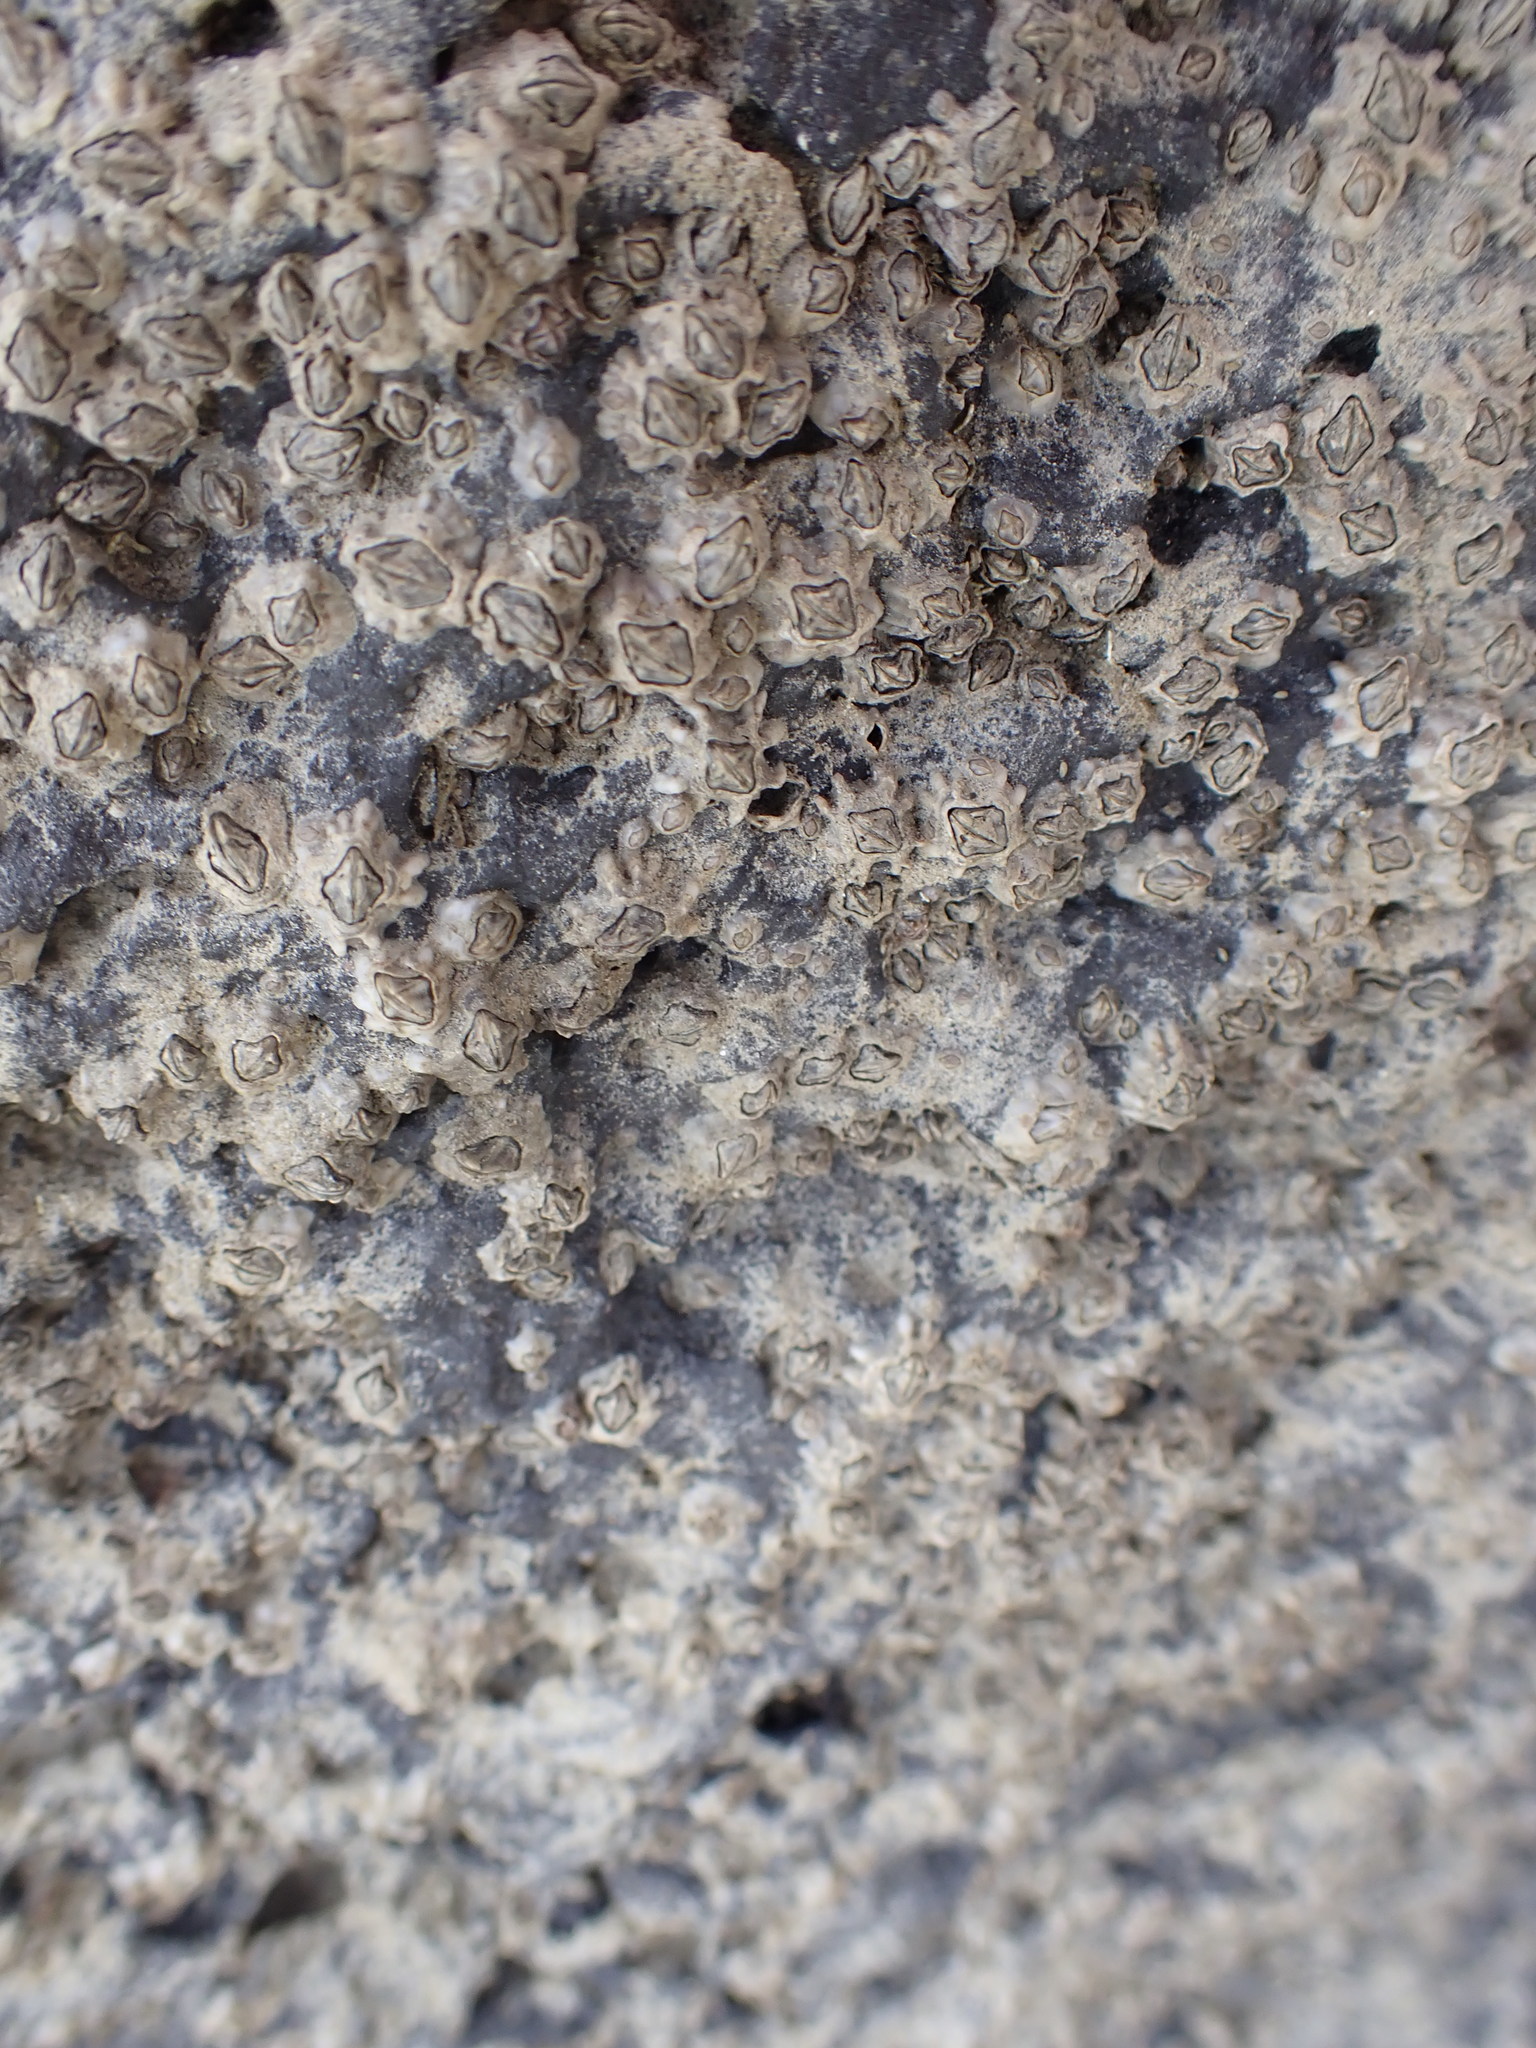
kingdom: Animalia
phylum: Arthropoda
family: Elminiidae
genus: Austrominius
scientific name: Austrominius modestus
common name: Australasian barnacle
